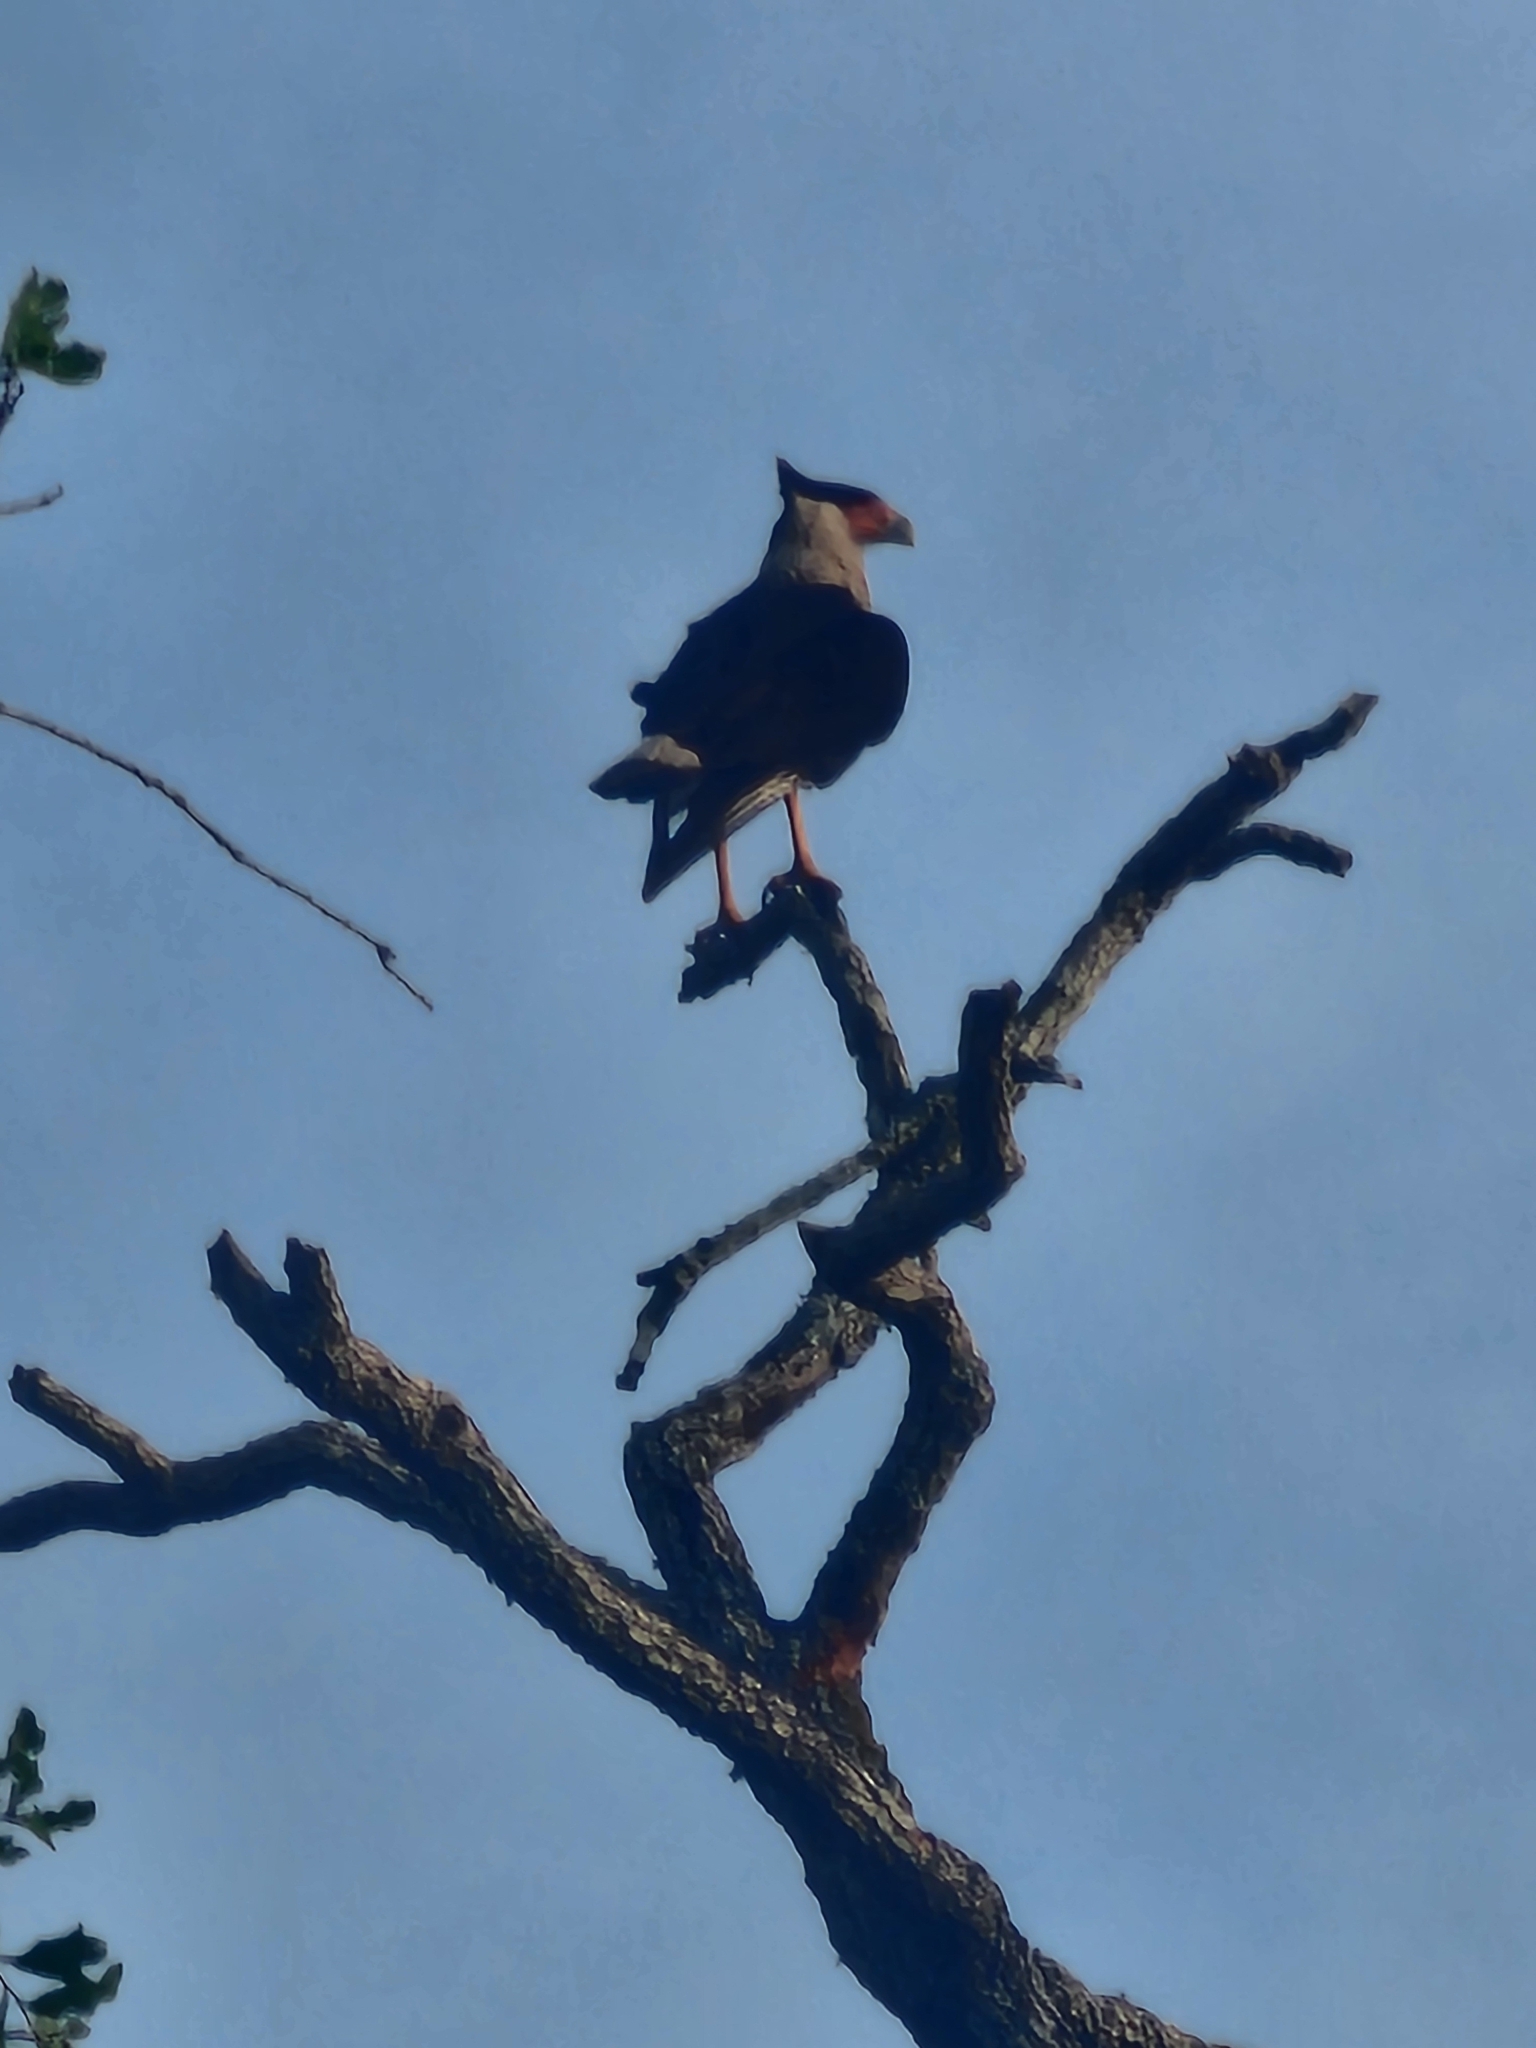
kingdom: Animalia
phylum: Chordata
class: Aves
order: Falconiformes
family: Falconidae
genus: Caracara
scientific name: Caracara plancus
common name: Southern caracara
